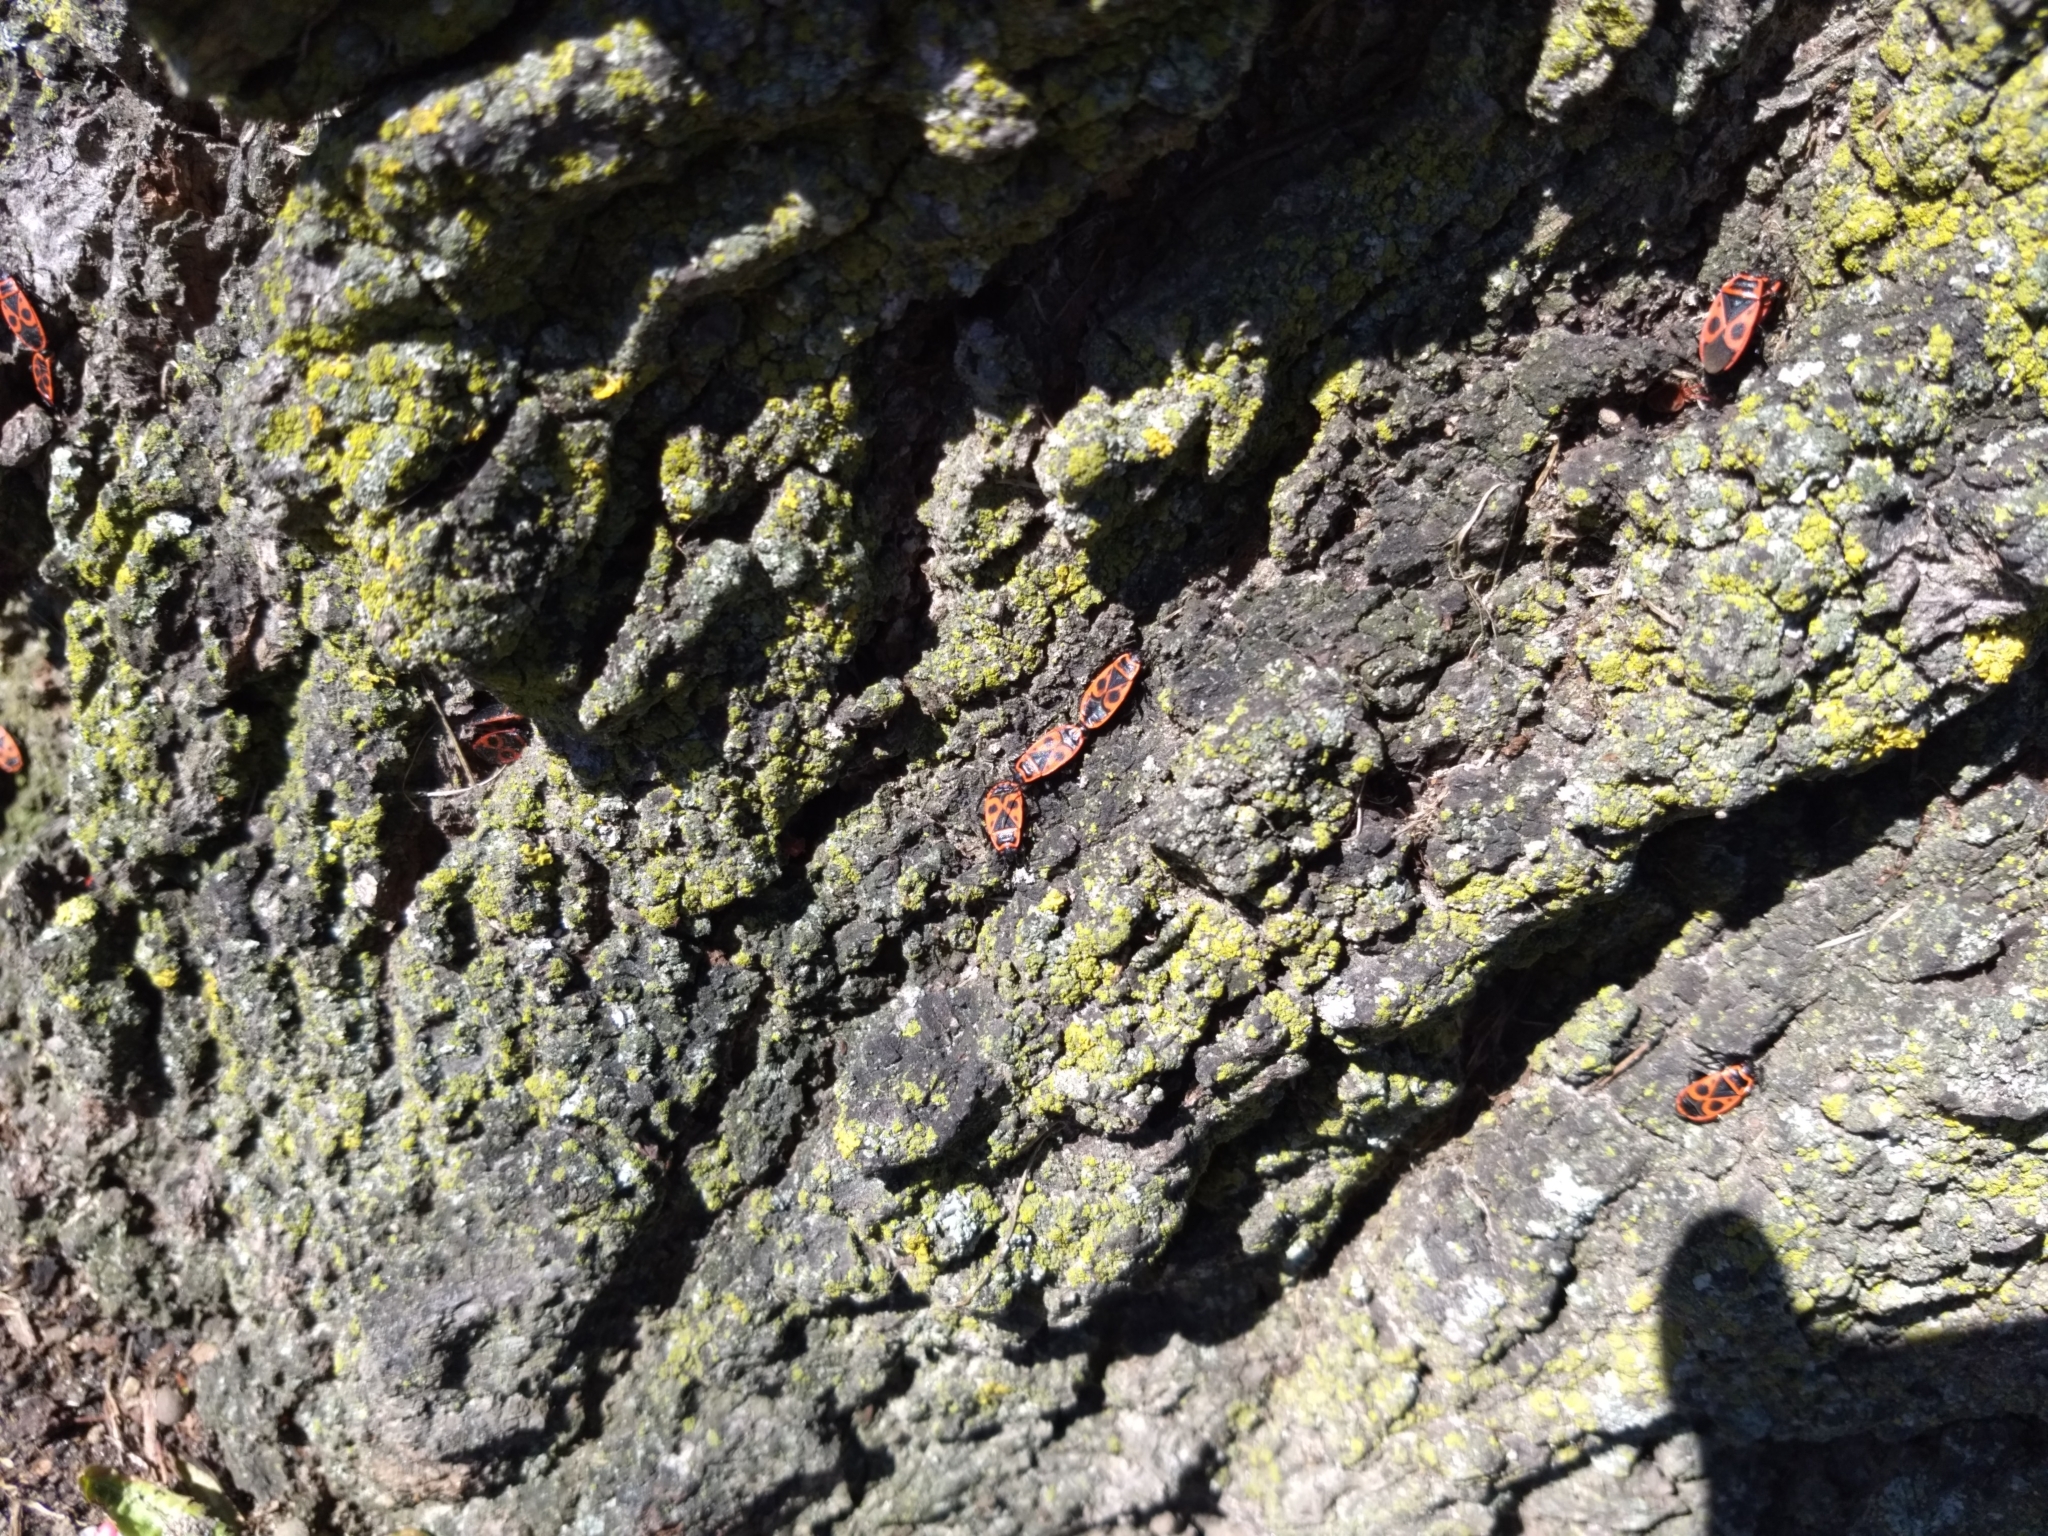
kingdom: Animalia
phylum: Arthropoda
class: Insecta
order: Hemiptera
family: Pyrrhocoridae
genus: Pyrrhocoris
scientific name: Pyrrhocoris apterus
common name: Firebug
